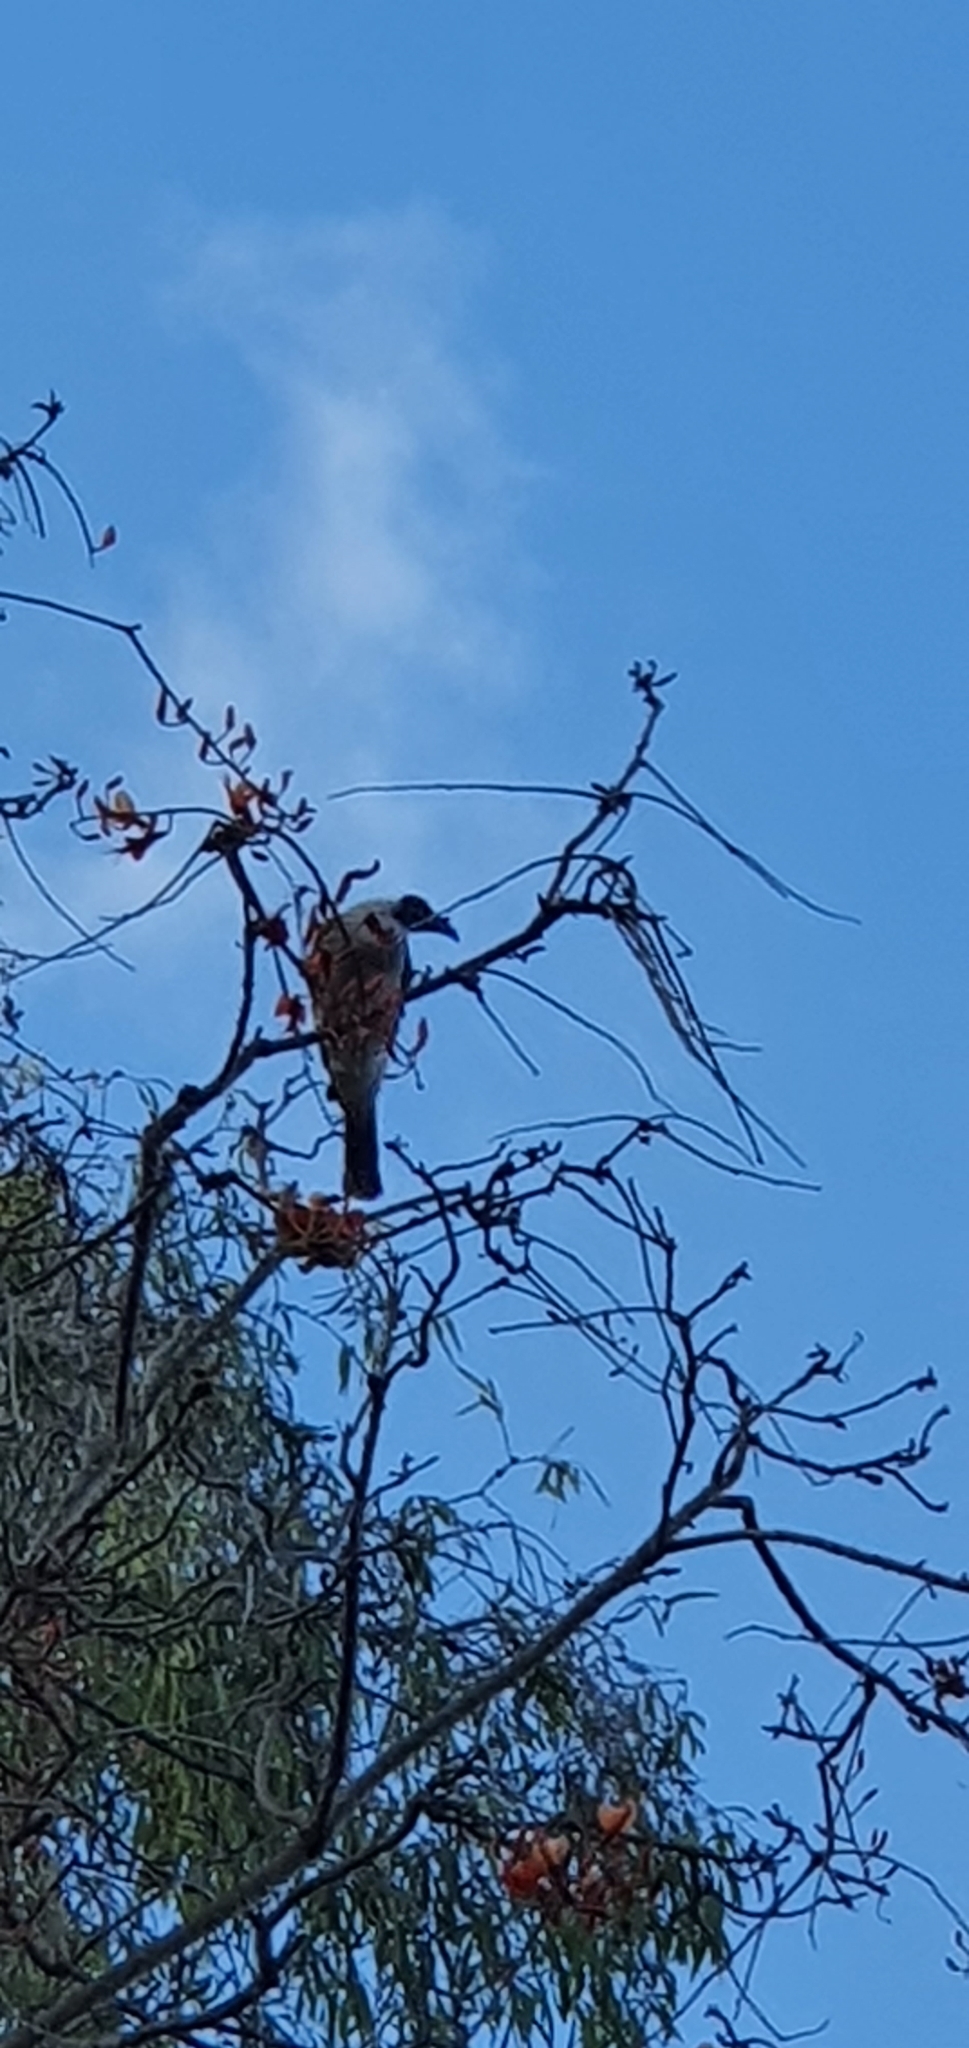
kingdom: Animalia
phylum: Chordata
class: Aves
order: Passeriformes
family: Meliphagidae
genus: Philemon
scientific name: Philemon corniculatus
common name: Noisy friarbird
